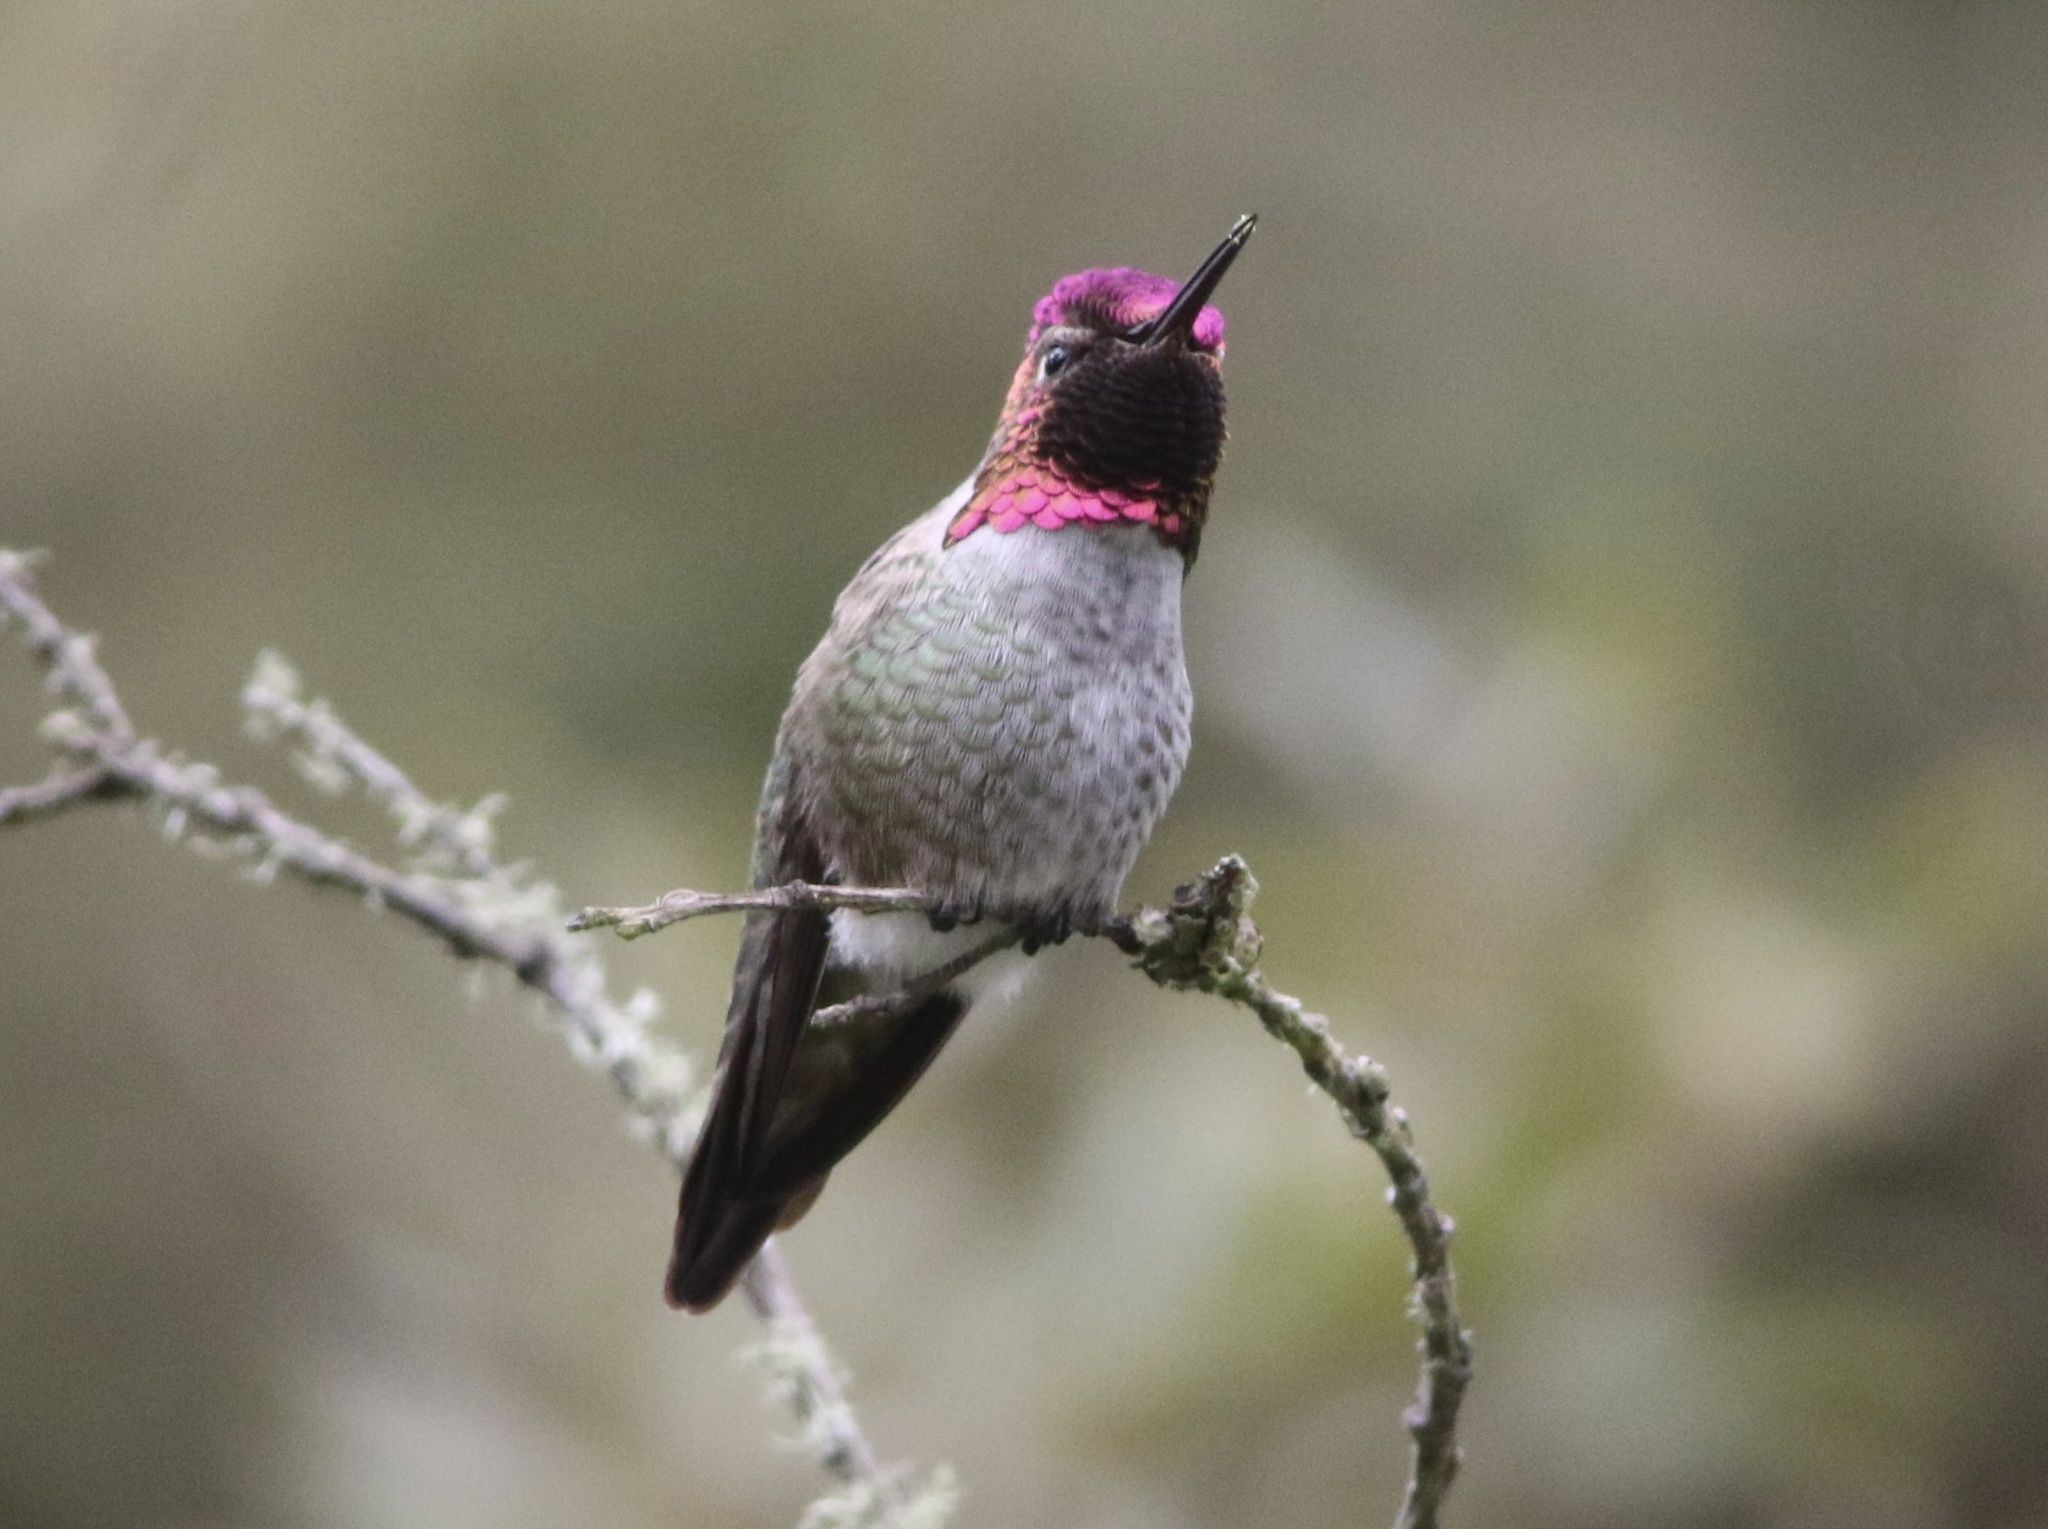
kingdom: Animalia
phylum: Chordata
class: Aves
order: Apodiformes
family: Trochilidae
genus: Calypte
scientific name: Calypte anna
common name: Anna's hummingbird
